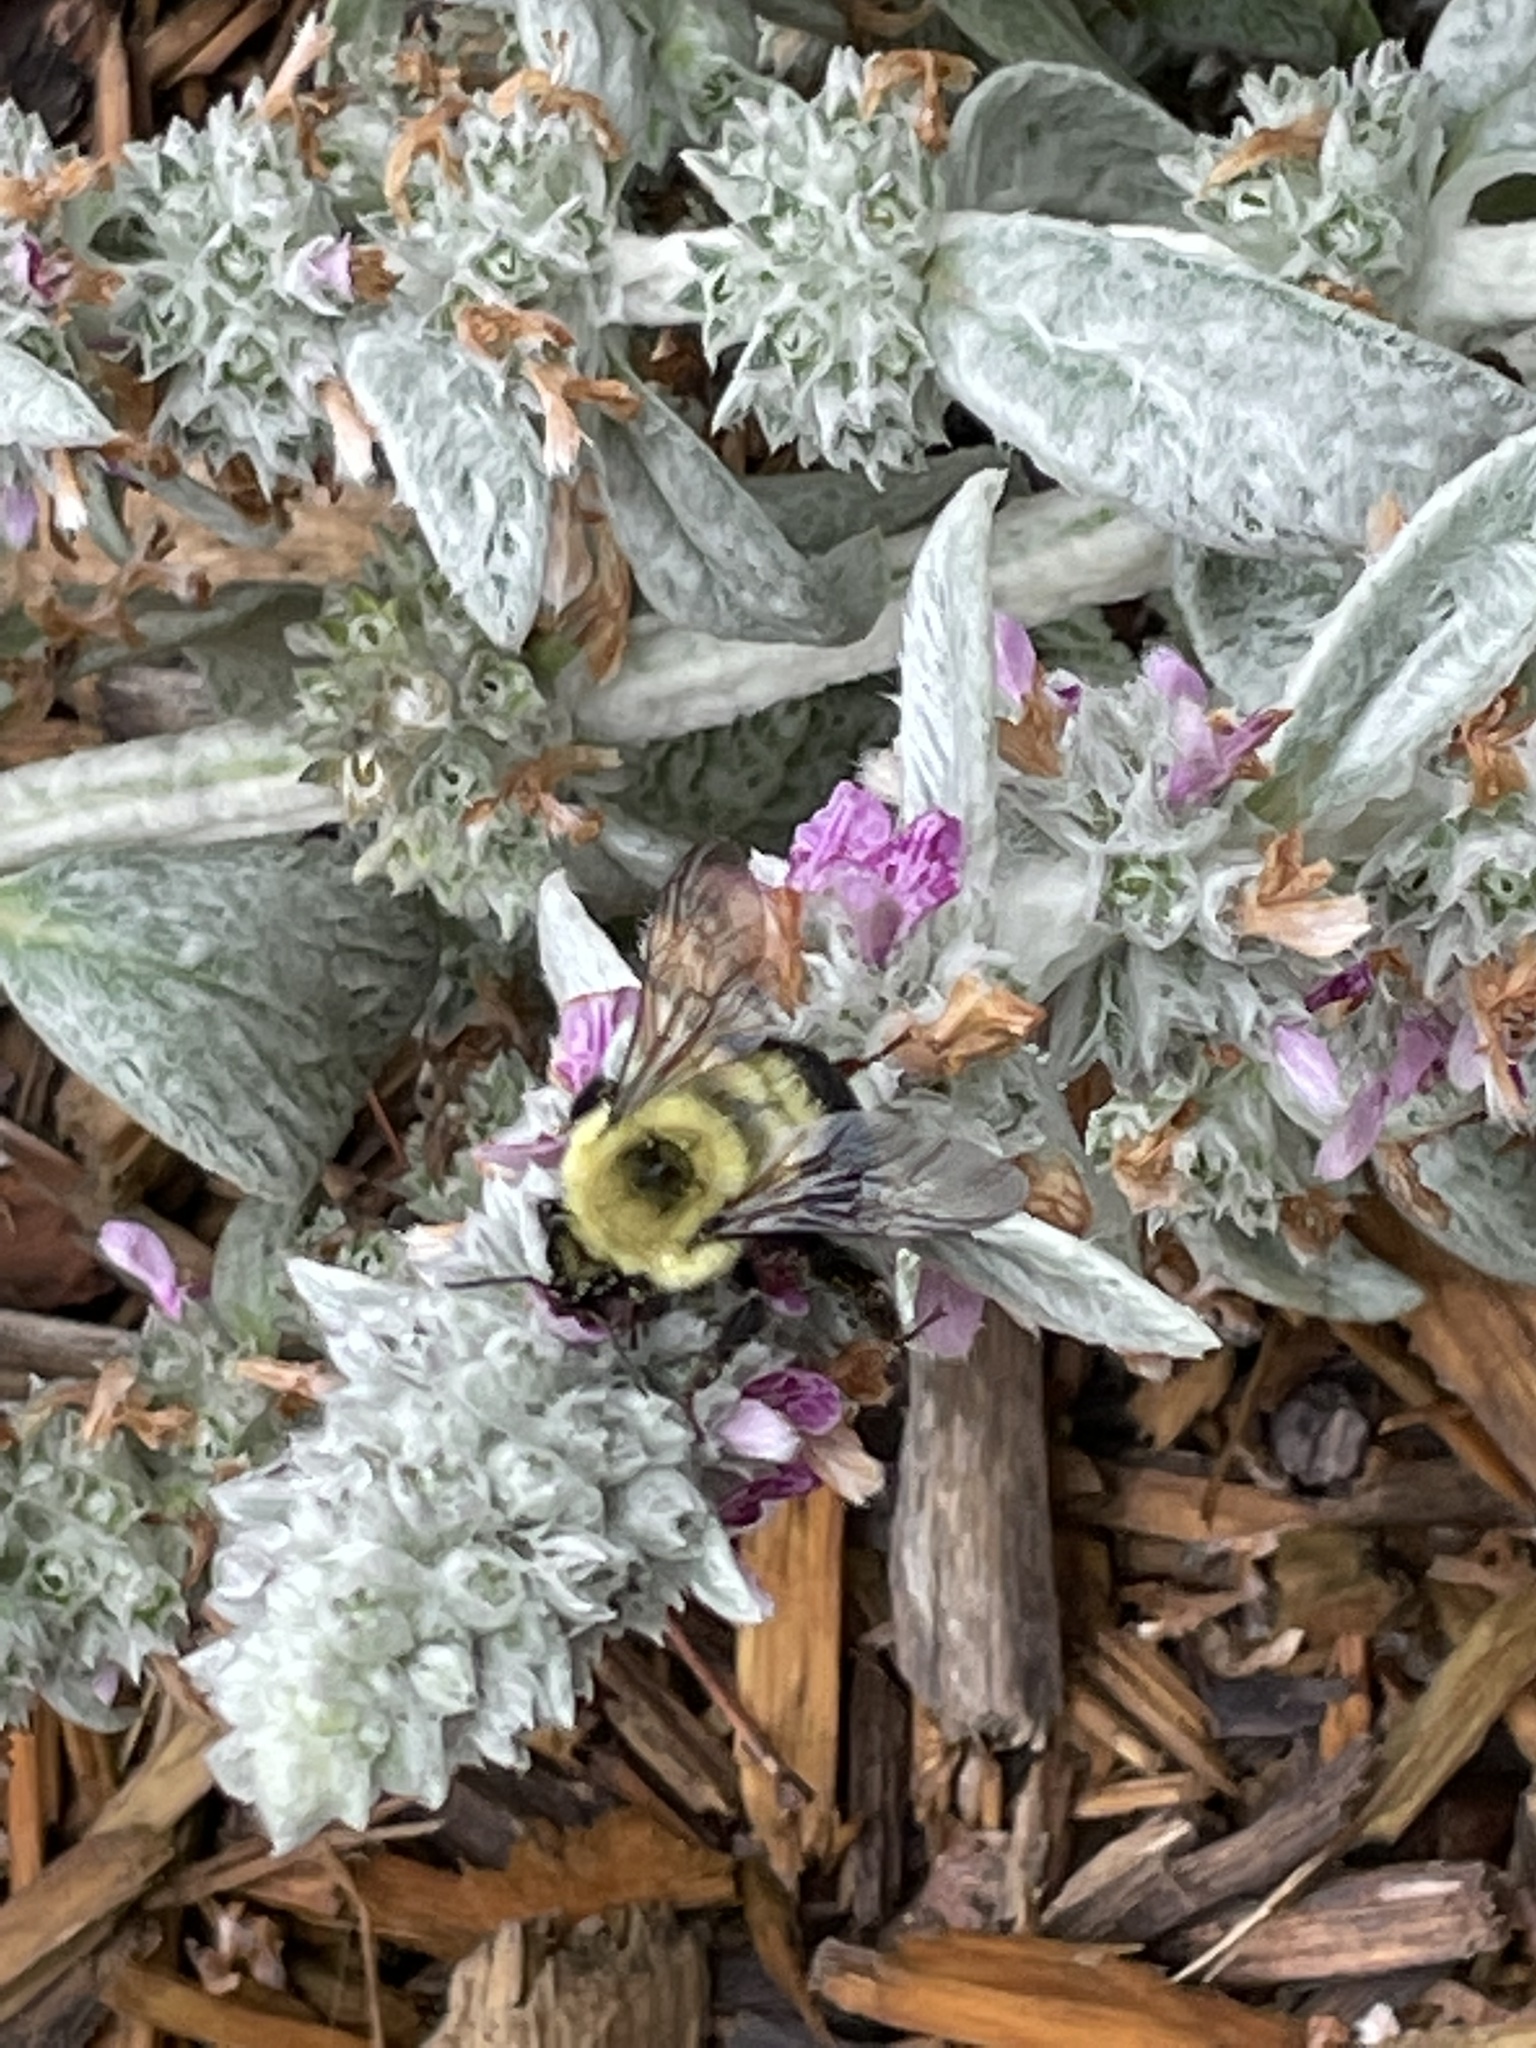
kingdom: Animalia
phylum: Arthropoda
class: Insecta
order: Hymenoptera
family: Apidae
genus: Bombus
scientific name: Bombus bimaculatus
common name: Two-spotted bumble bee
